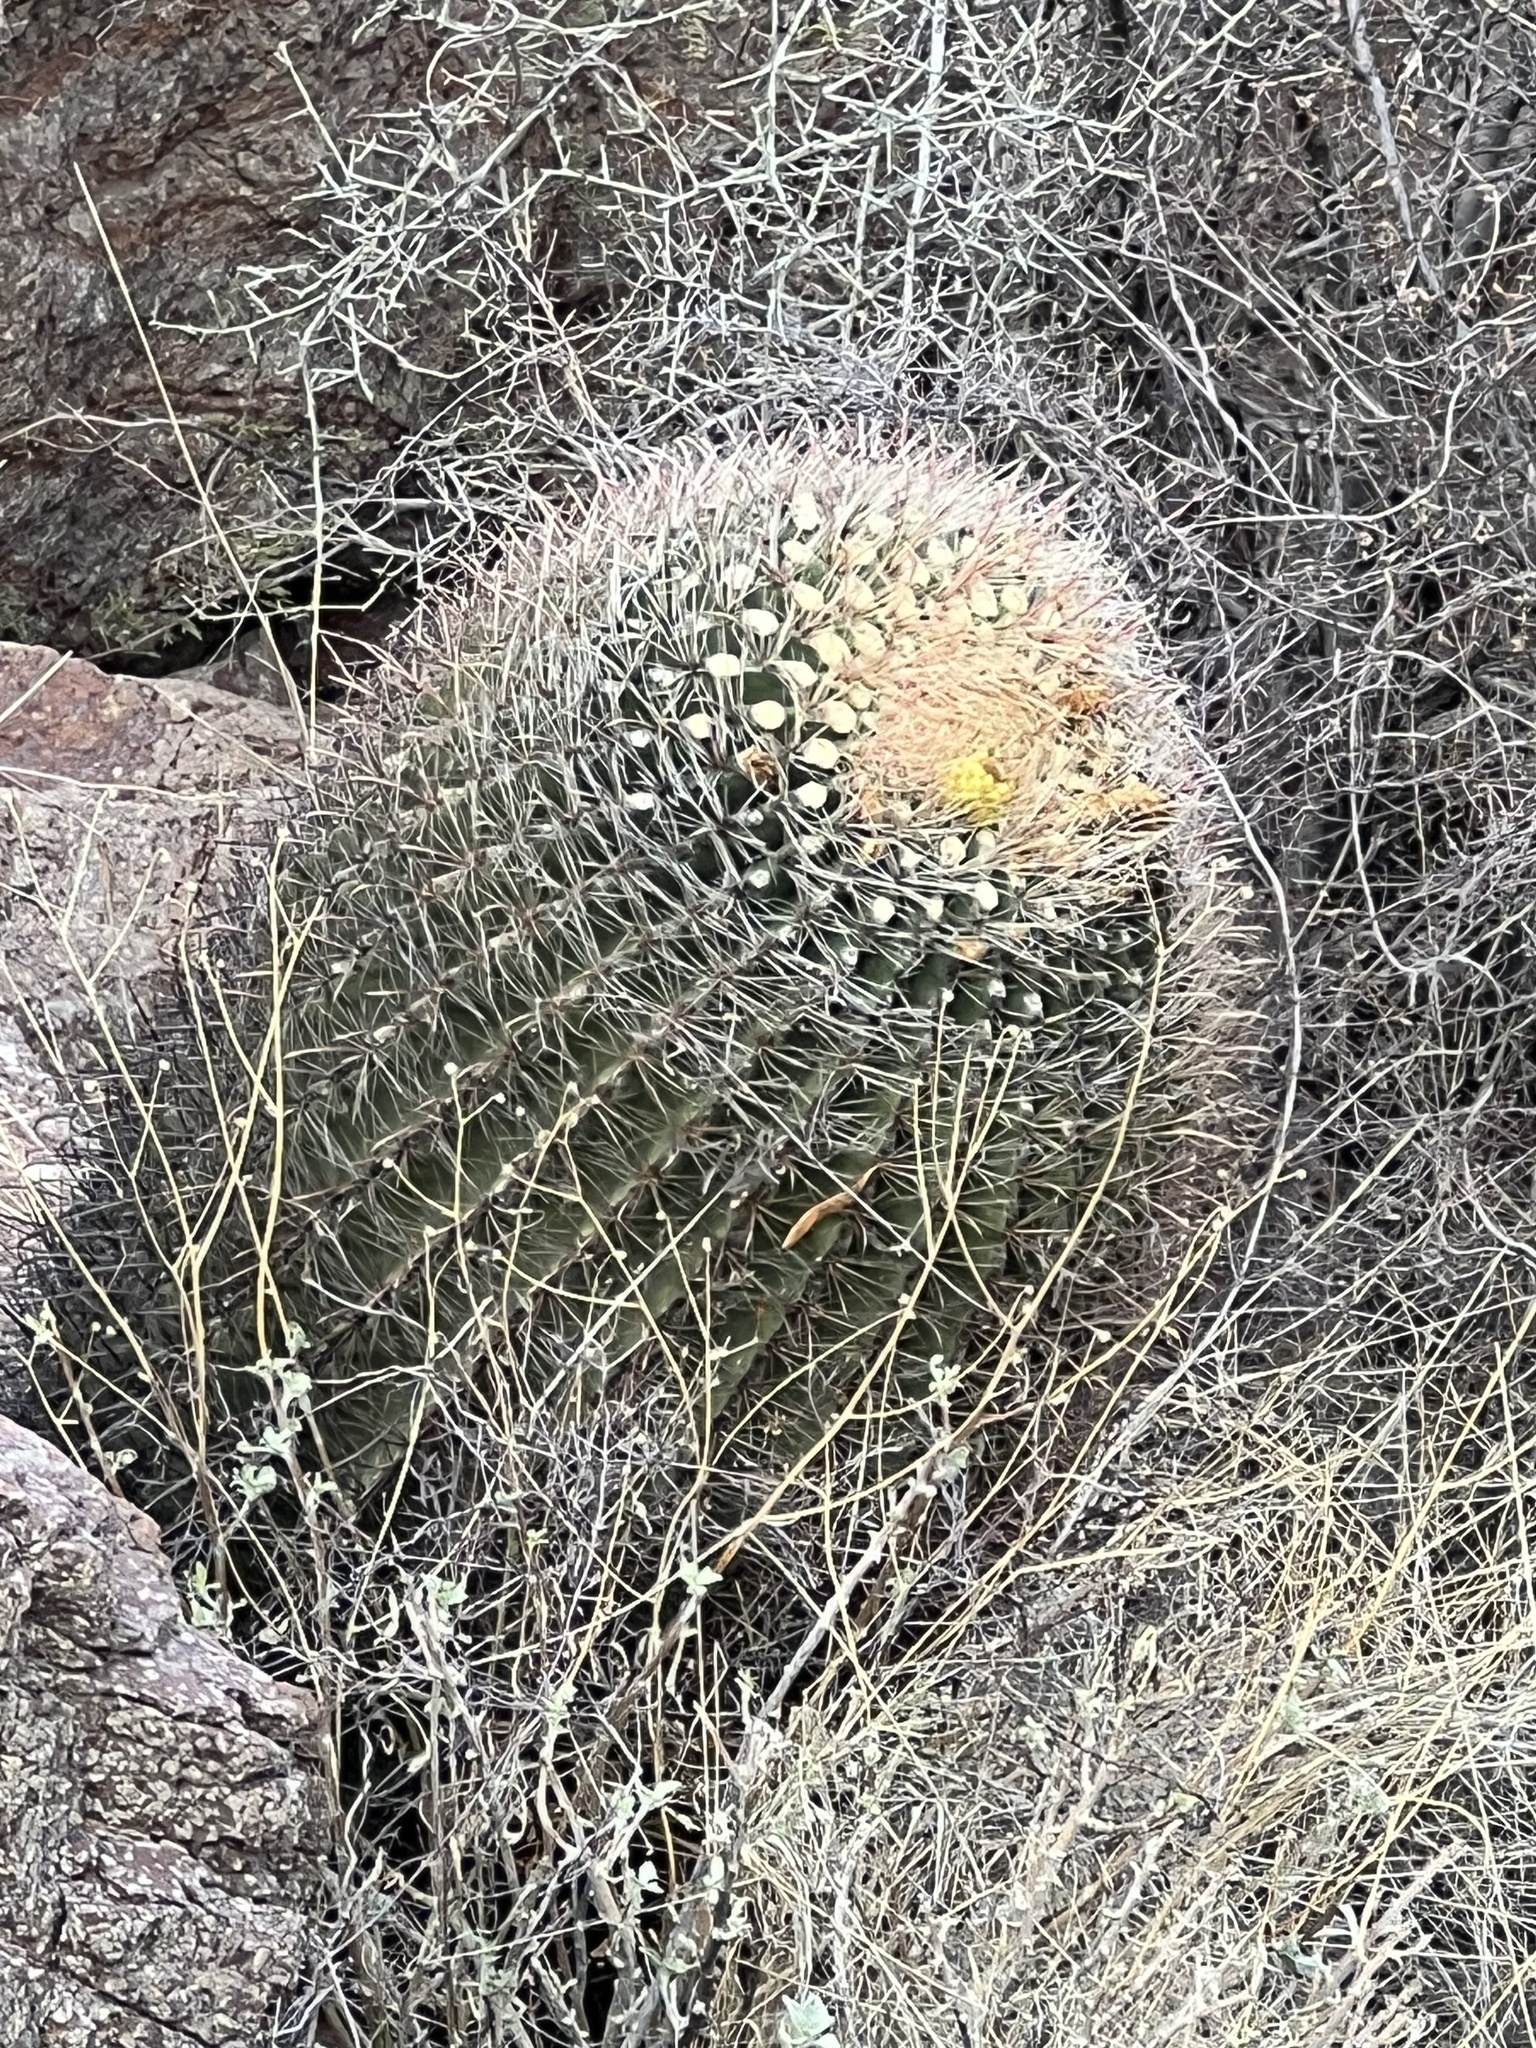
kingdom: Plantae
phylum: Tracheophyta
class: Magnoliopsida
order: Caryophyllales
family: Cactaceae
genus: Ferocactus
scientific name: Ferocactus wislizeni
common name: Candy barrel cactus
